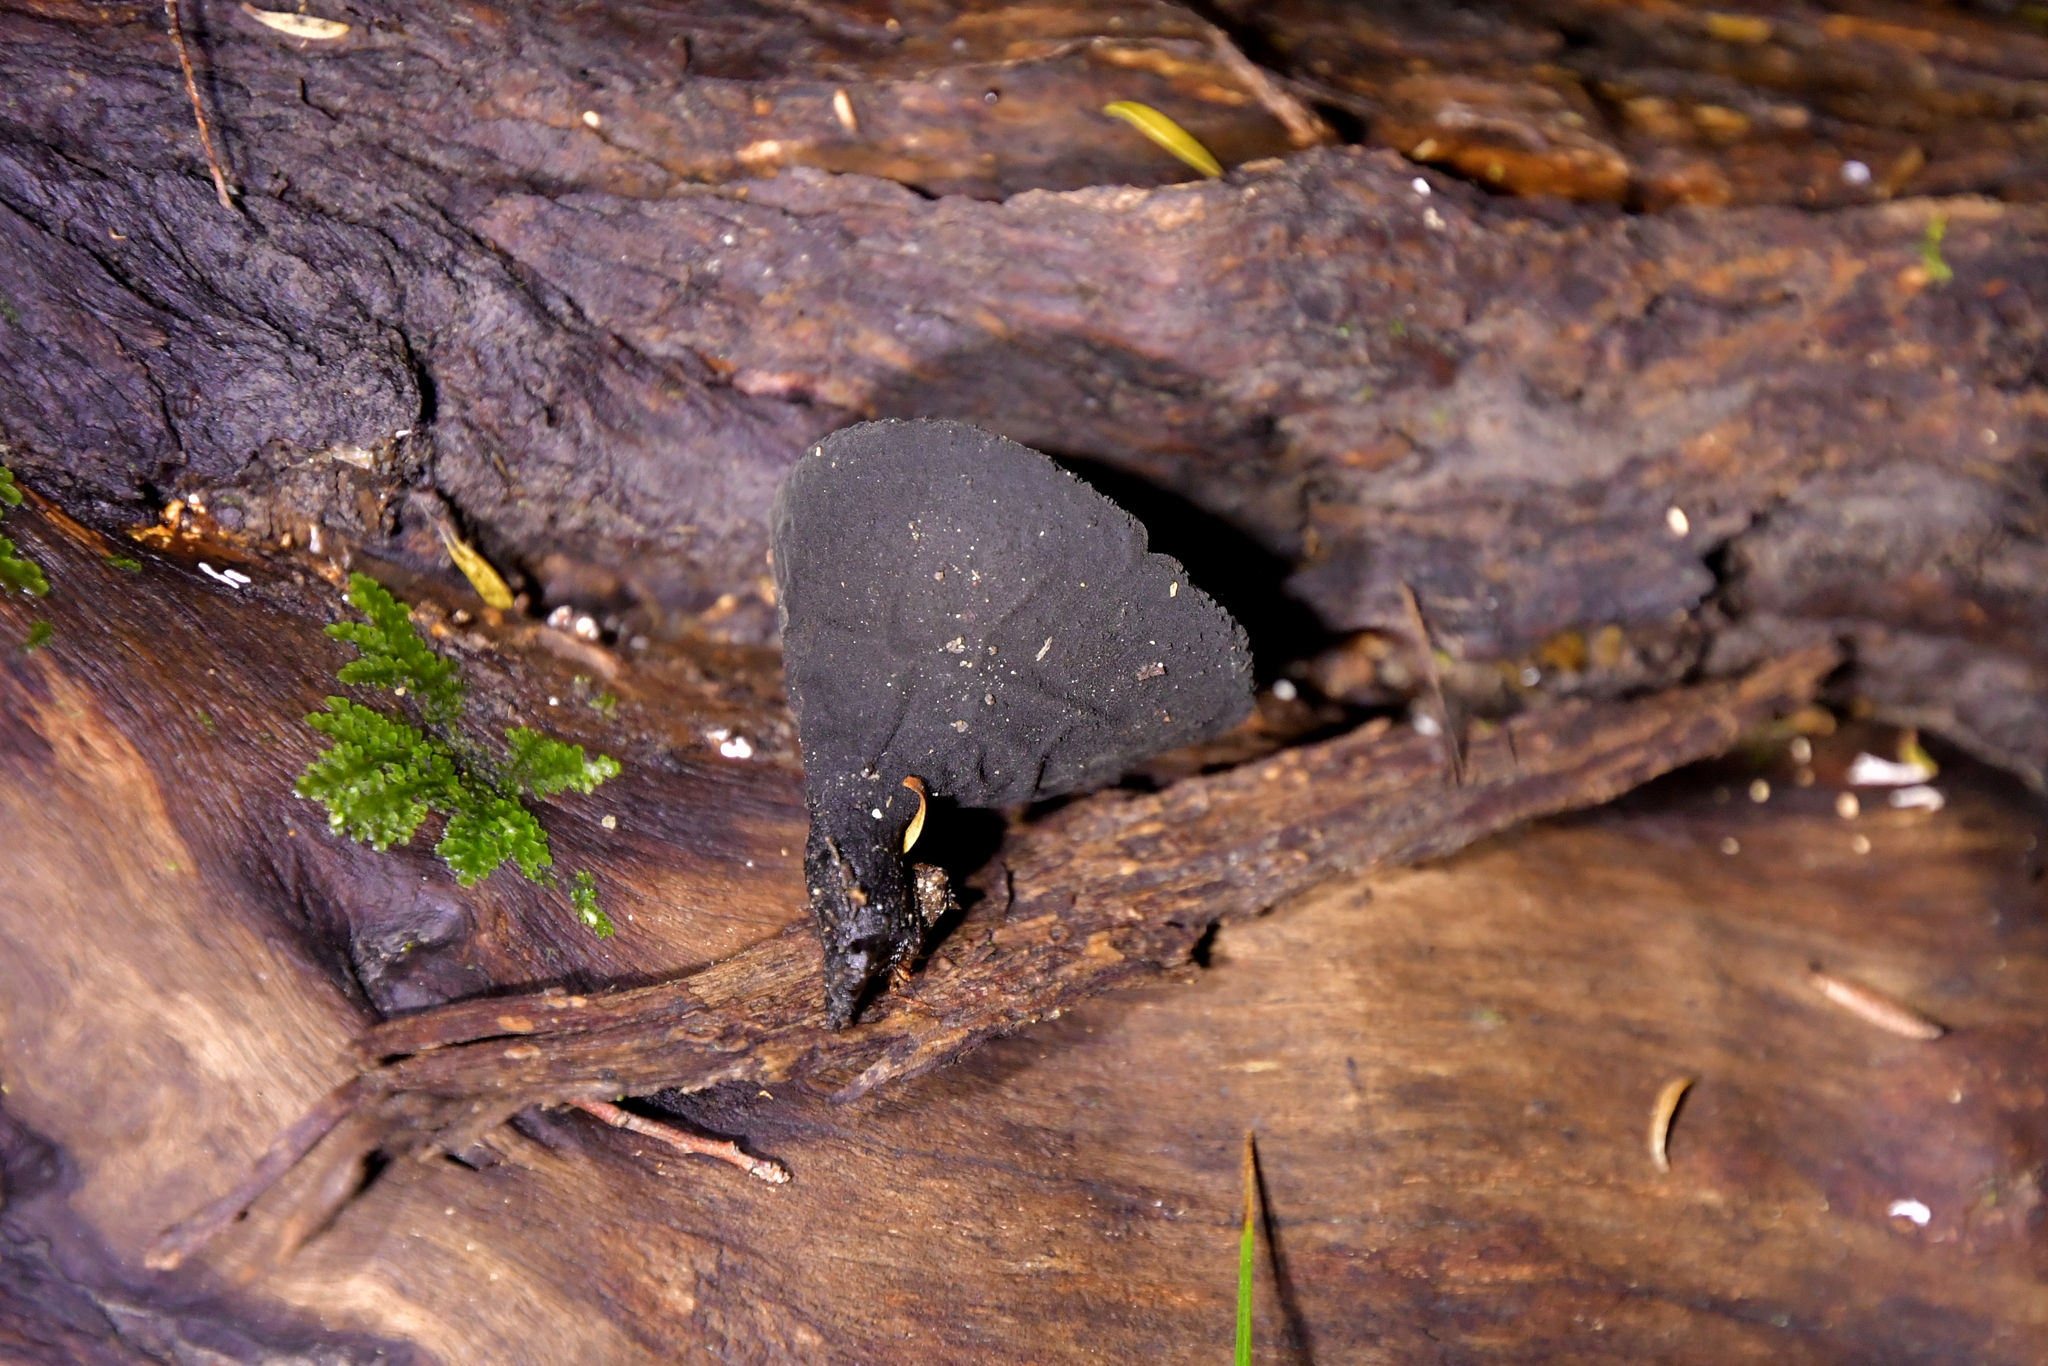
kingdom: Fungi
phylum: Ascomycota
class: Pezizomycetes
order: Pezizales
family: Sarcosomataceae
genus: Plectania
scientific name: Plectania rhytidia
